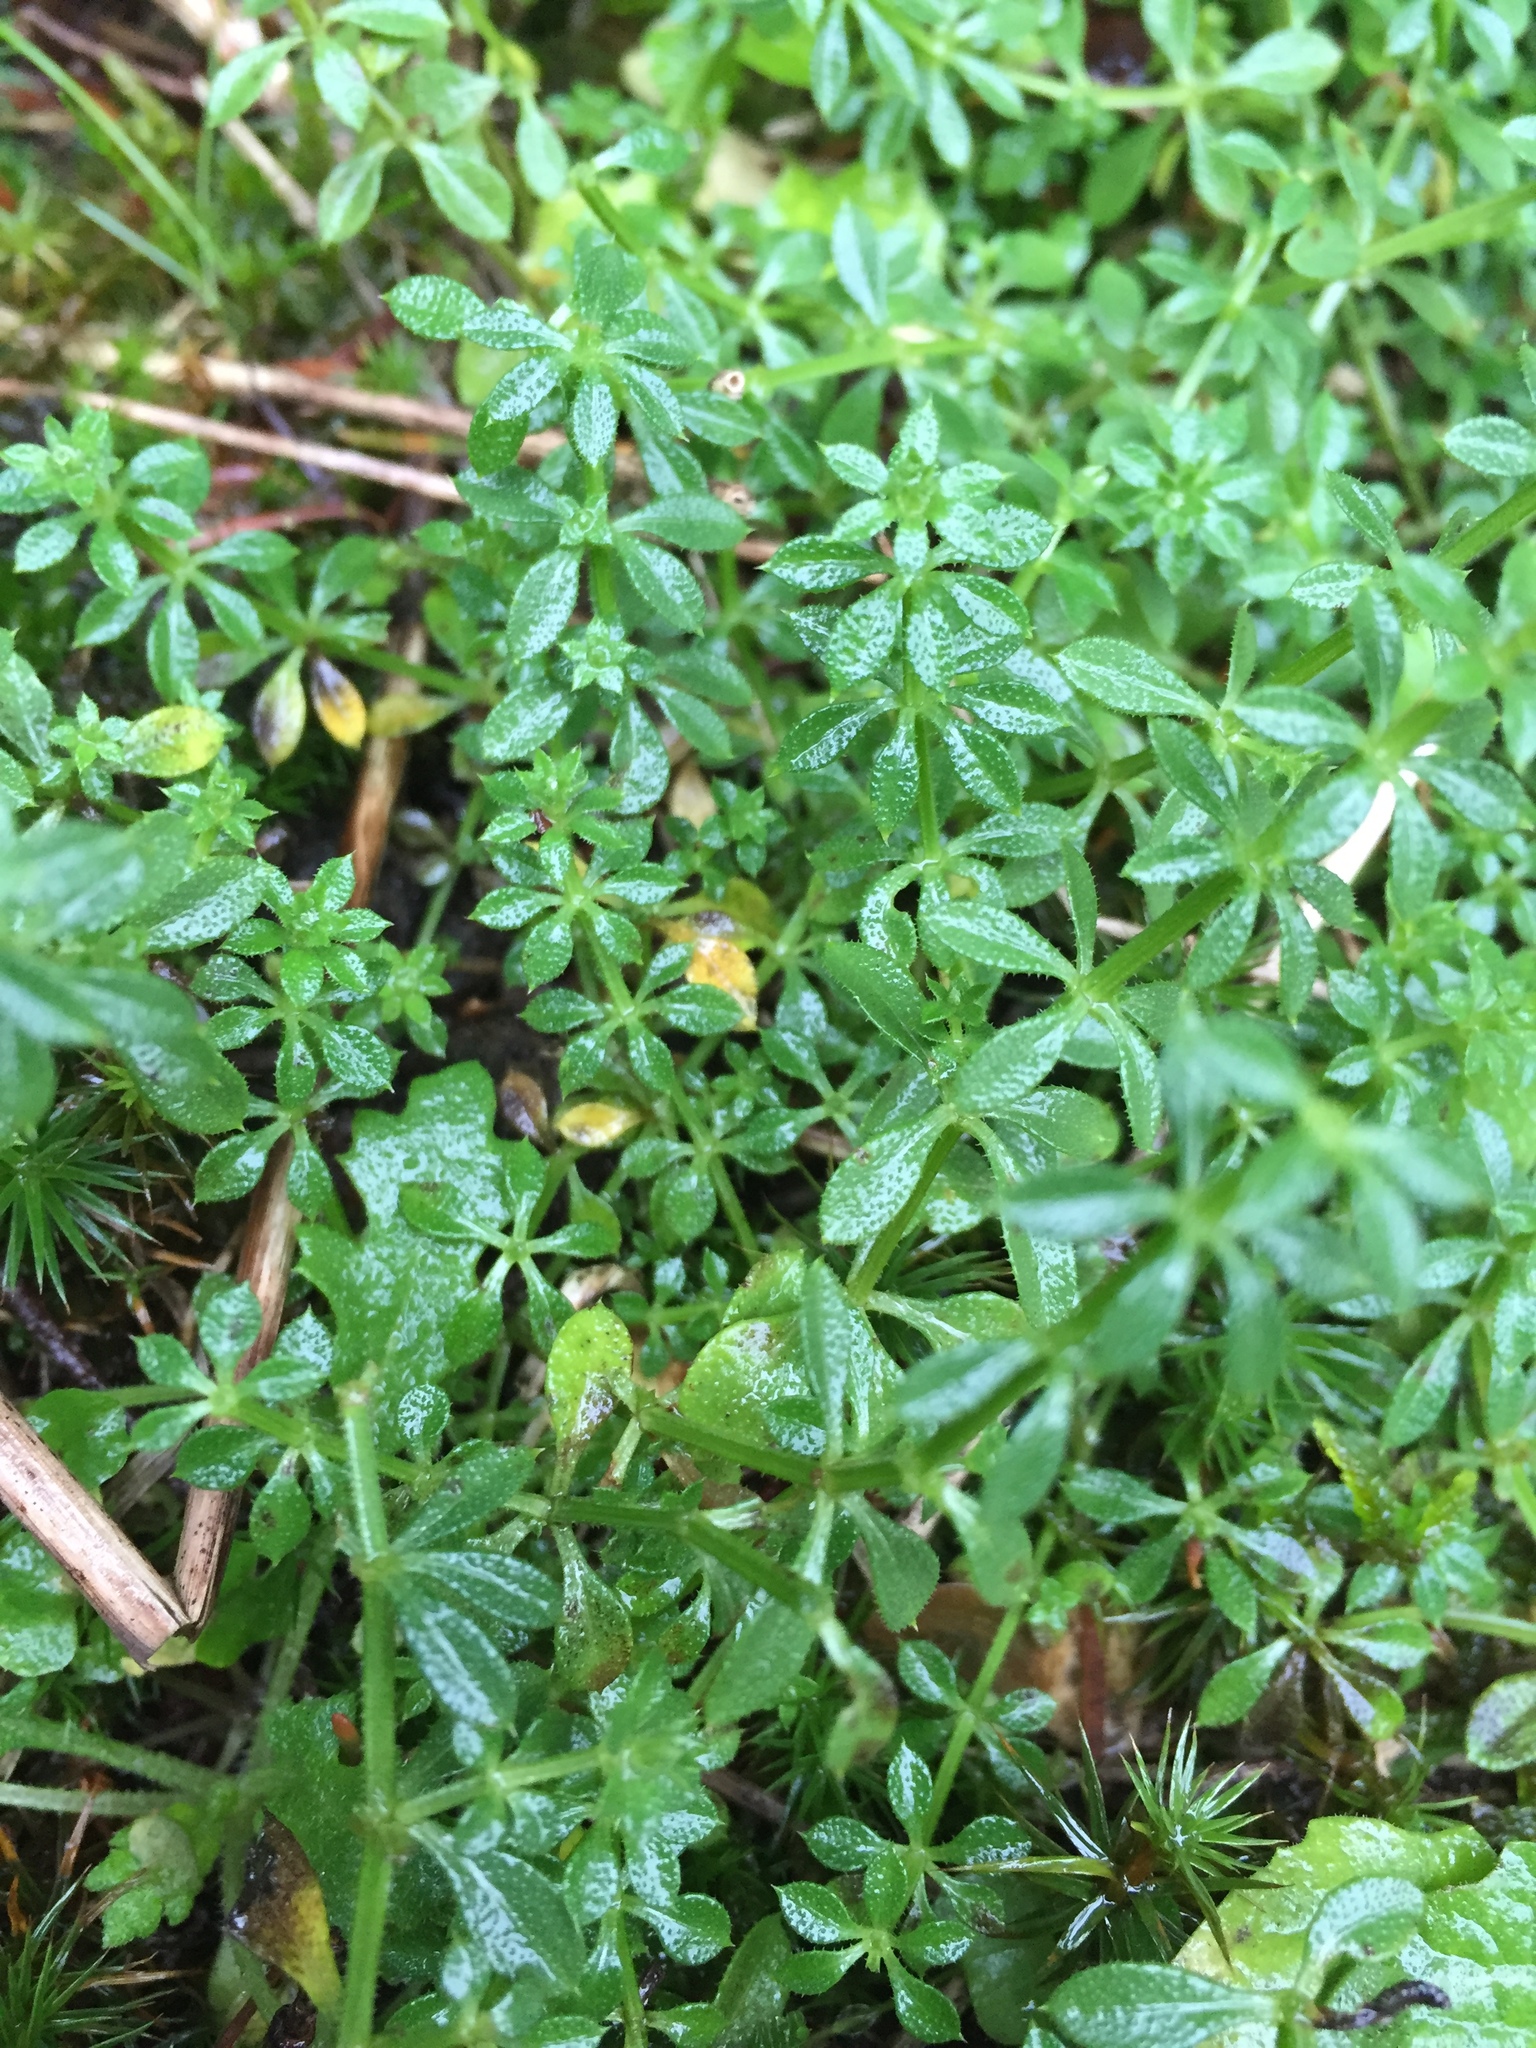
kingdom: Plantae
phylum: Tracheophyta
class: Magnoliopsida
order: Gentianales
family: Rubiaceae
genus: Galium
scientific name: Galium aparine
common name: Cleavers
